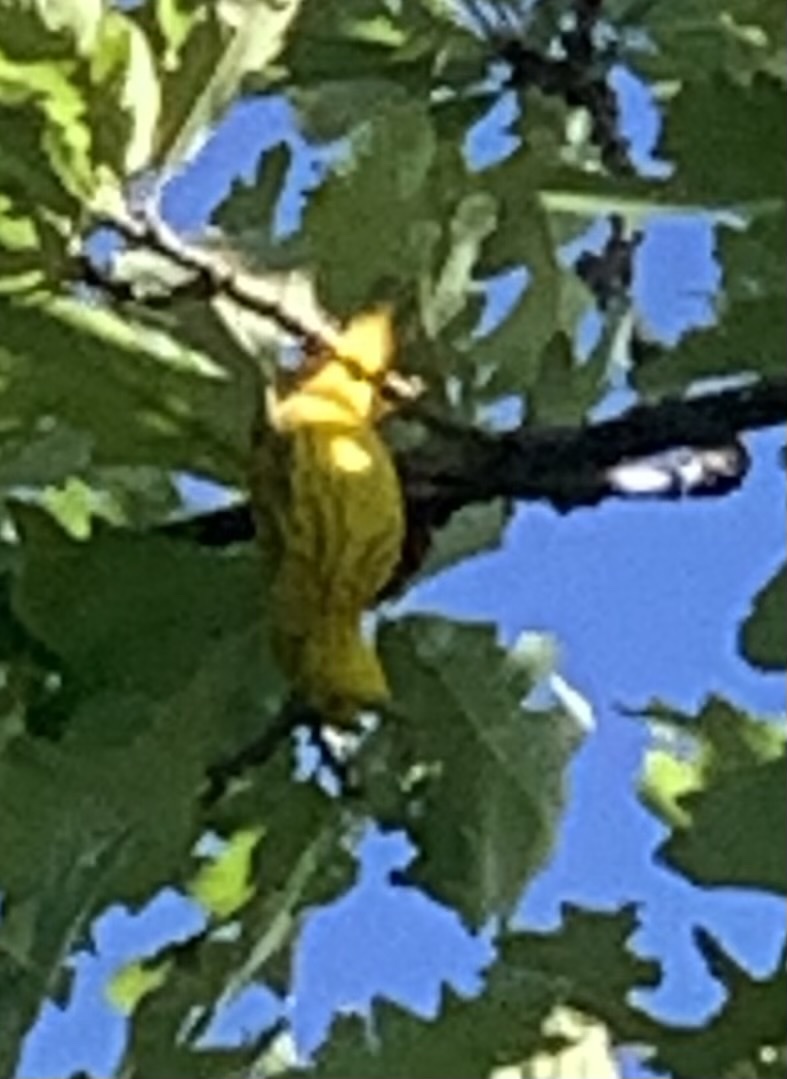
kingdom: Animalia
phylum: Chordata
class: Aves
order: Passeriformes
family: Parulidae
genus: Setophaga
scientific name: Setophaga petechia
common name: Yellow warbler
